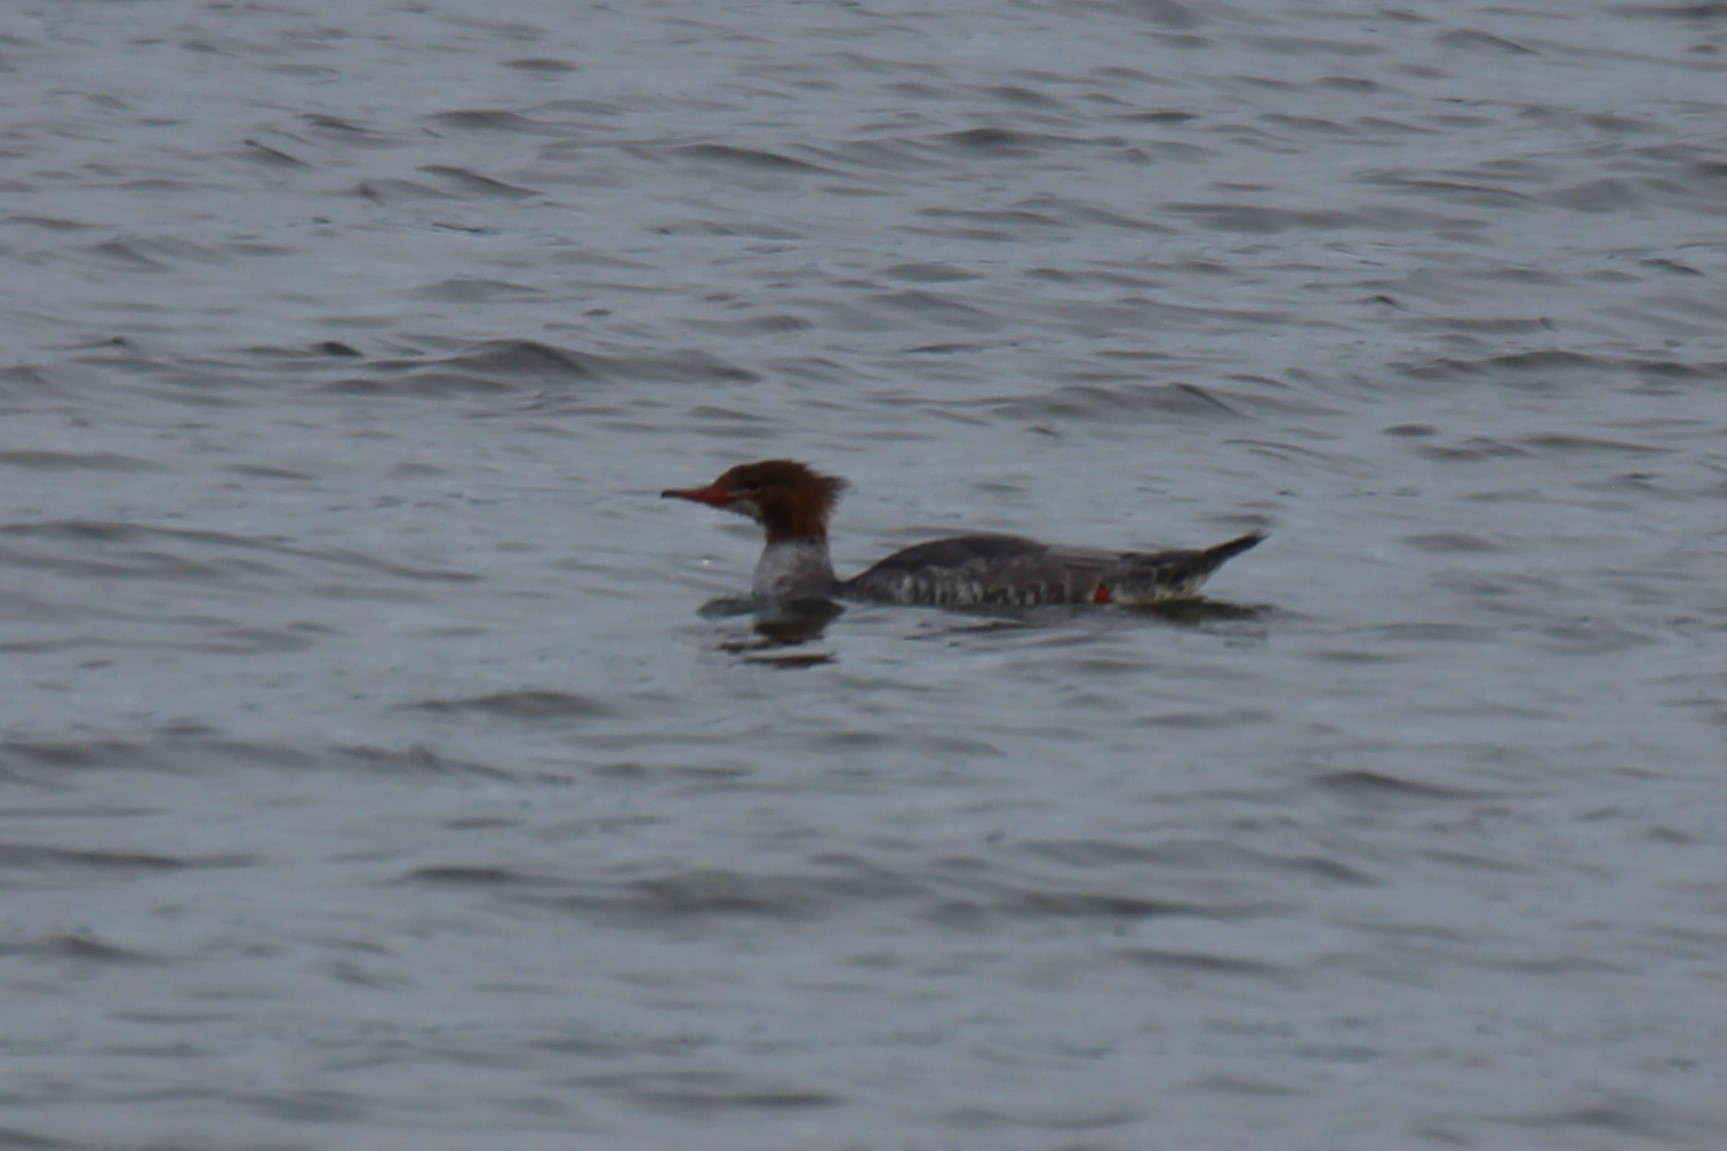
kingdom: Animalia
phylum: Chordata
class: Aves
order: Anseriformes
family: Anatidae
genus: Mergus
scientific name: Mergus merganser
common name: Common merganser
